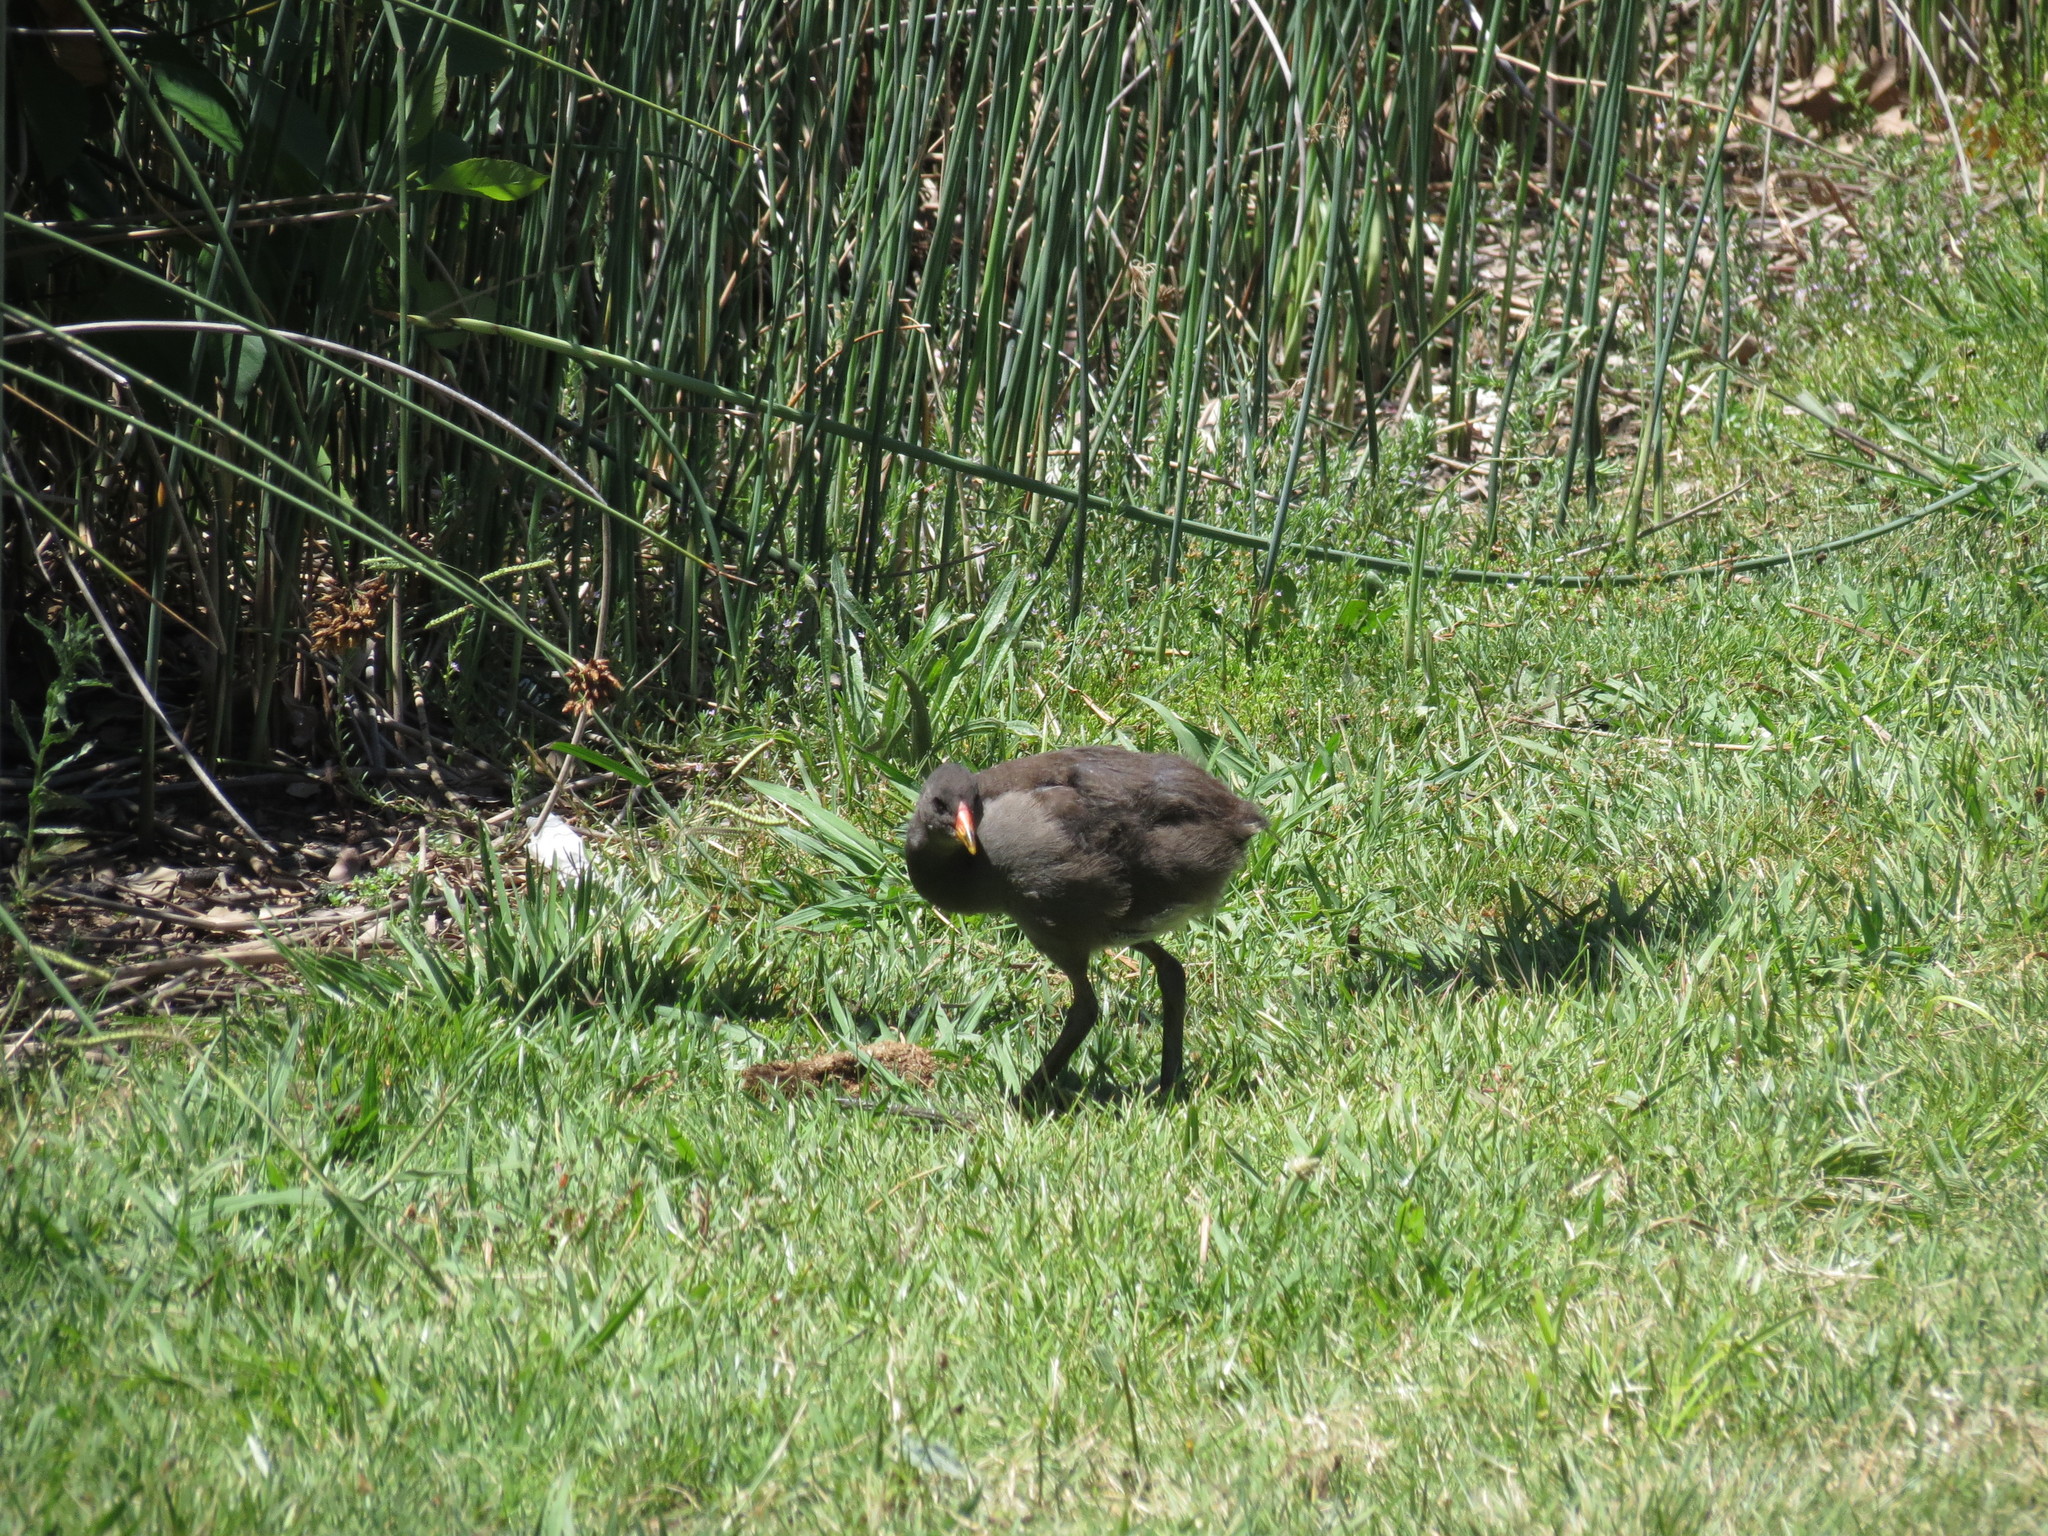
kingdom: Animalia
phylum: Chordata
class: Aves
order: Gruiformes
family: Rallidae
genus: Gallinula
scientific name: Gallinula tenebrosa
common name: Dusky moorhen
